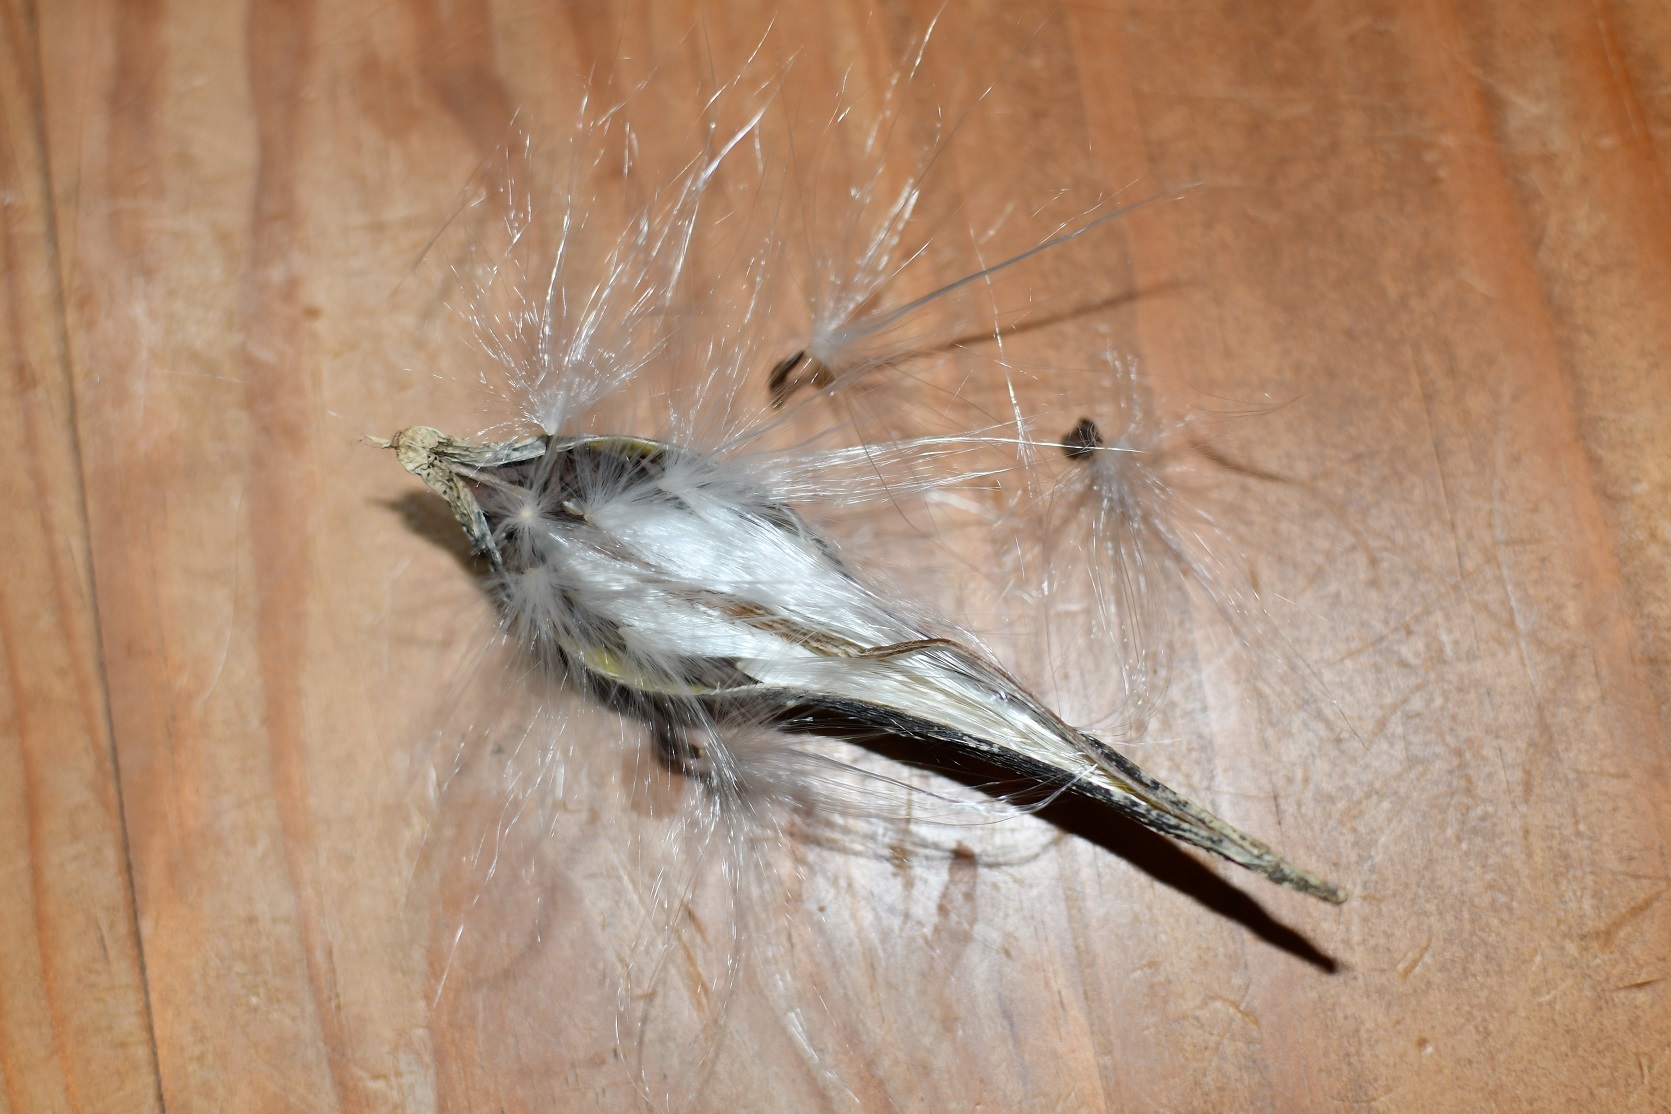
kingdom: Plantae
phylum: Tracheophyta
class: Magnoliopsida
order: Gentianales
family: Apocynaceae
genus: Matelea
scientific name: Matelea medusae
